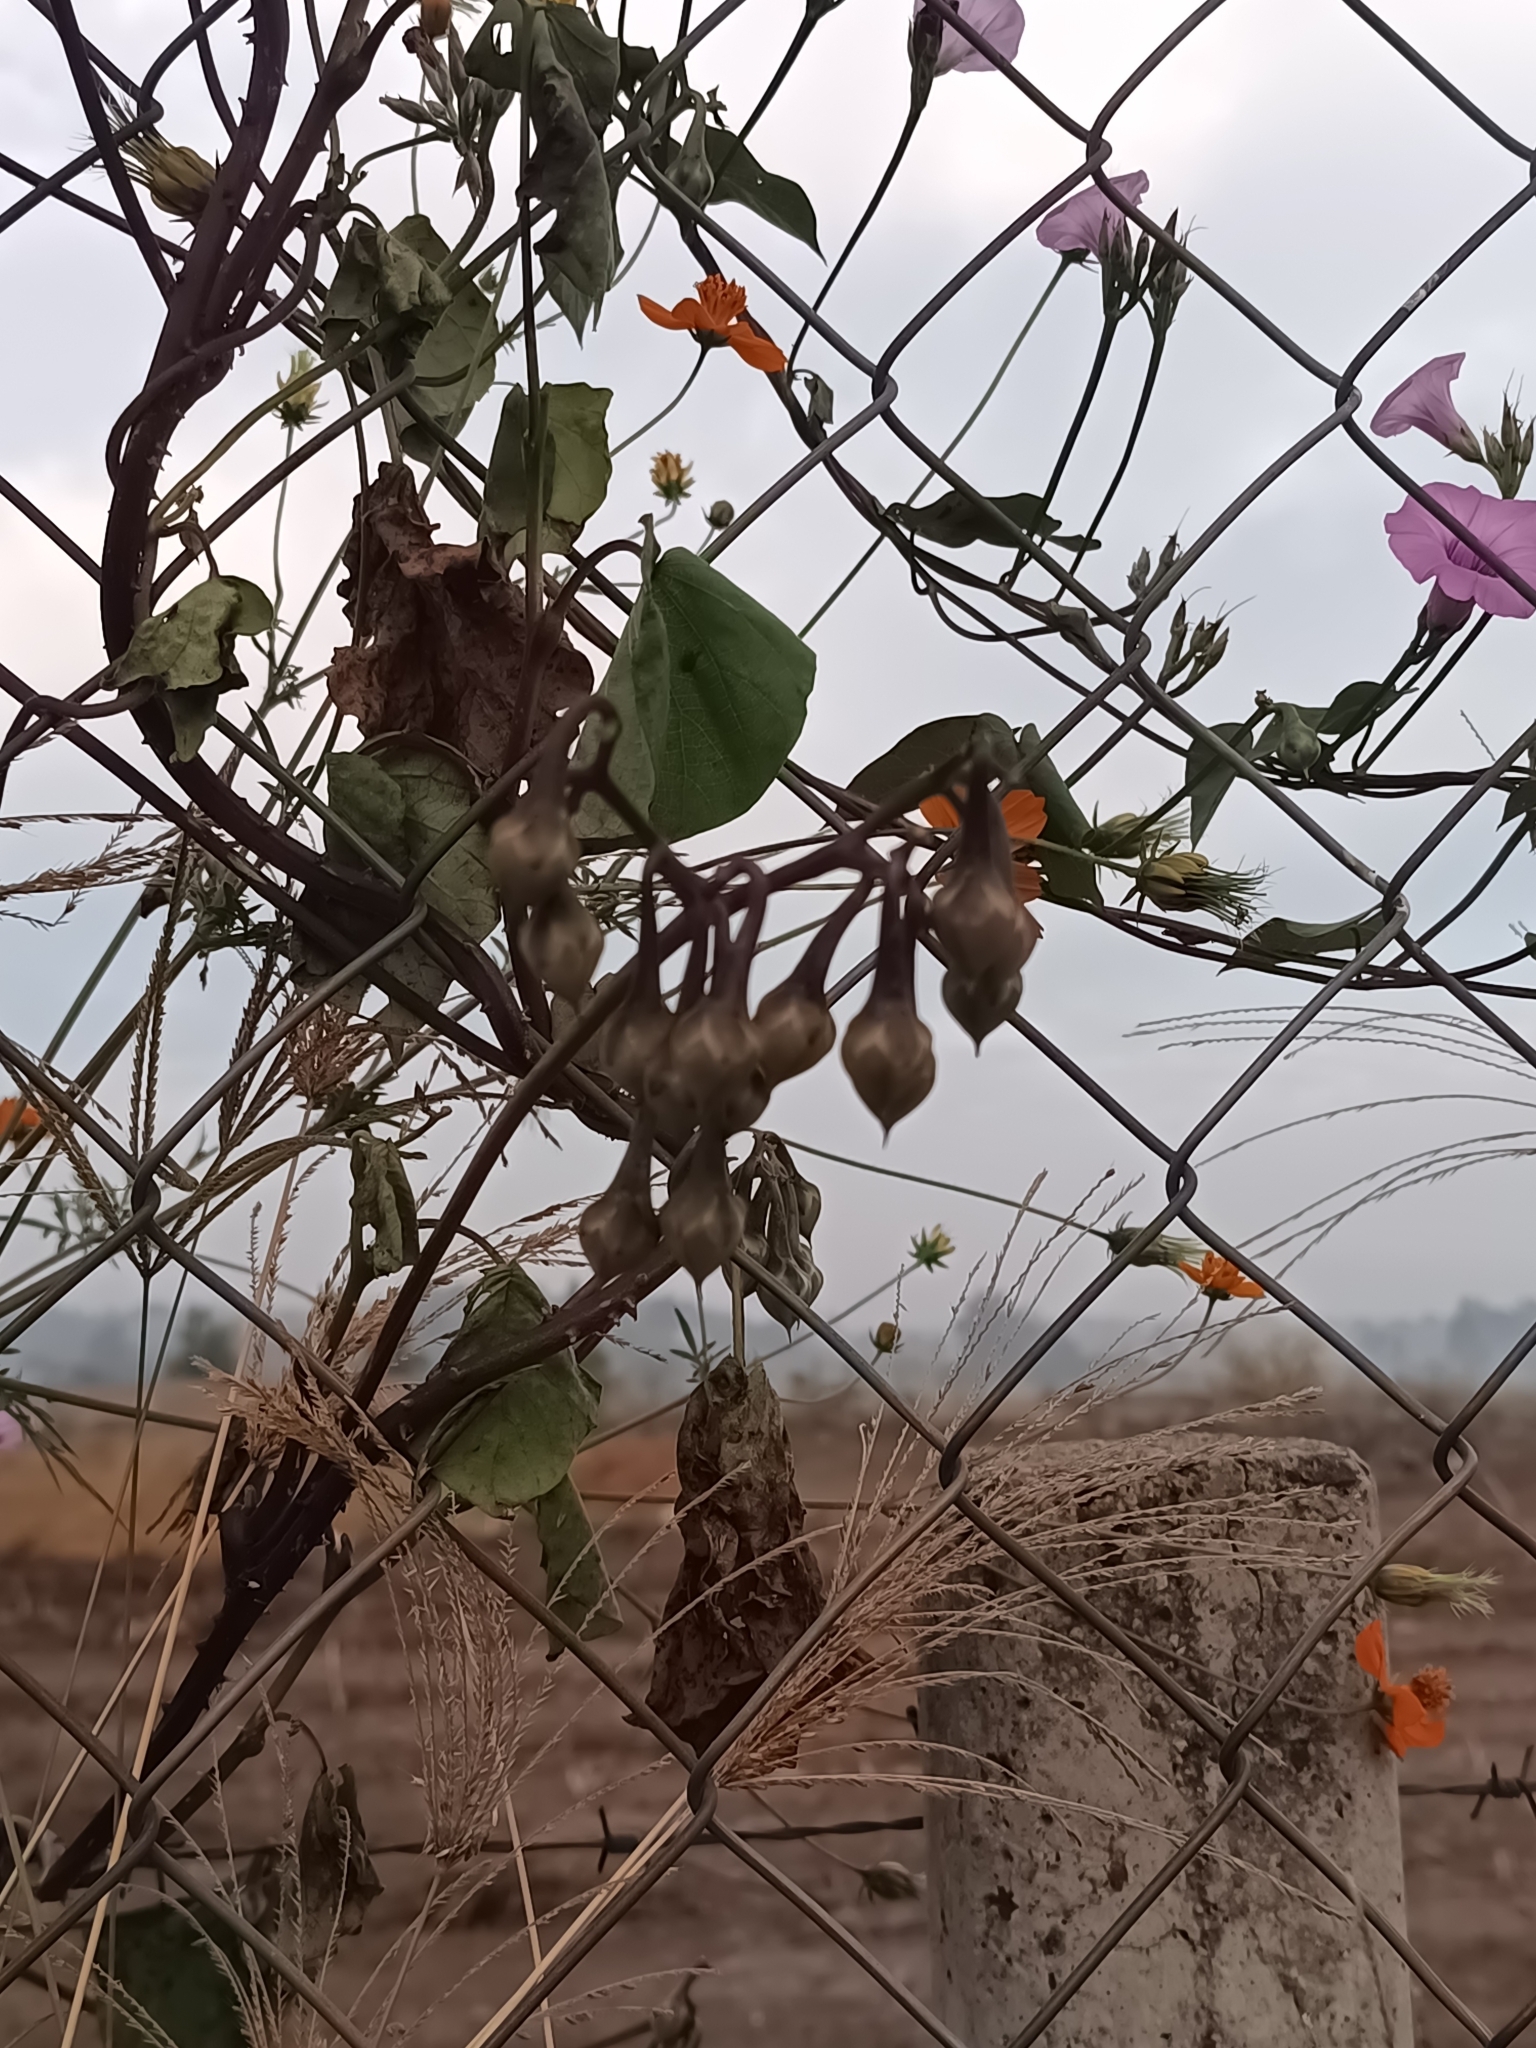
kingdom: Plantae
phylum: Tracheophyta
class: Magnoliopsida
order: Solanales
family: Convolvulaceae
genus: Ipomoea
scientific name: Ipomoea trifida
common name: Cotton morningglory
